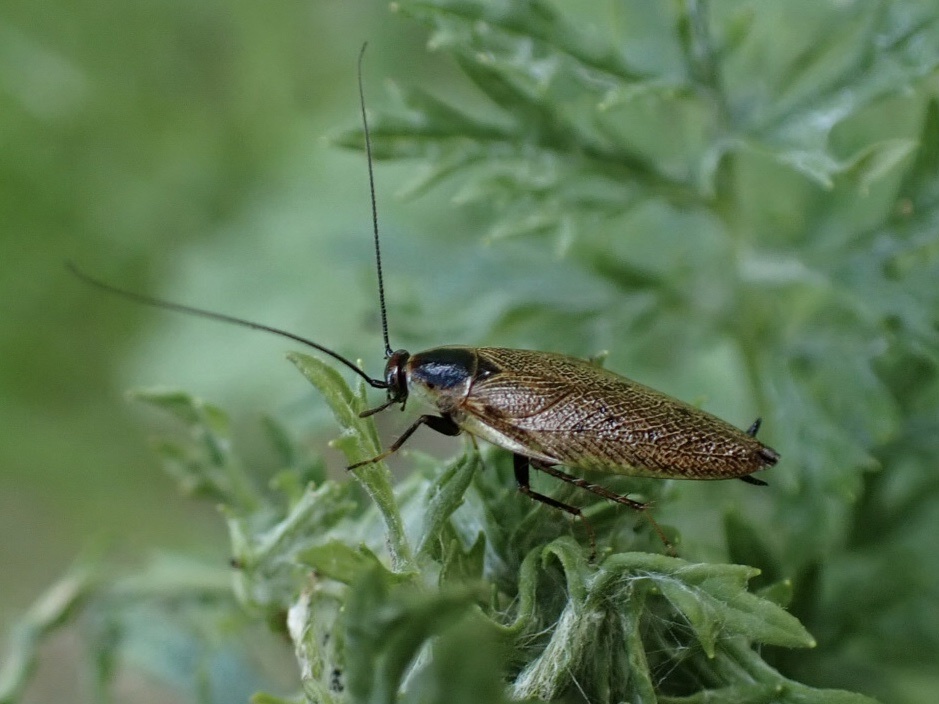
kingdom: Animalia
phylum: Arthropoda
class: Insecta
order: Blattodea
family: Ectobiidae
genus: Ectobius
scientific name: Ectobius lapponicus
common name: Dusky cockroach
